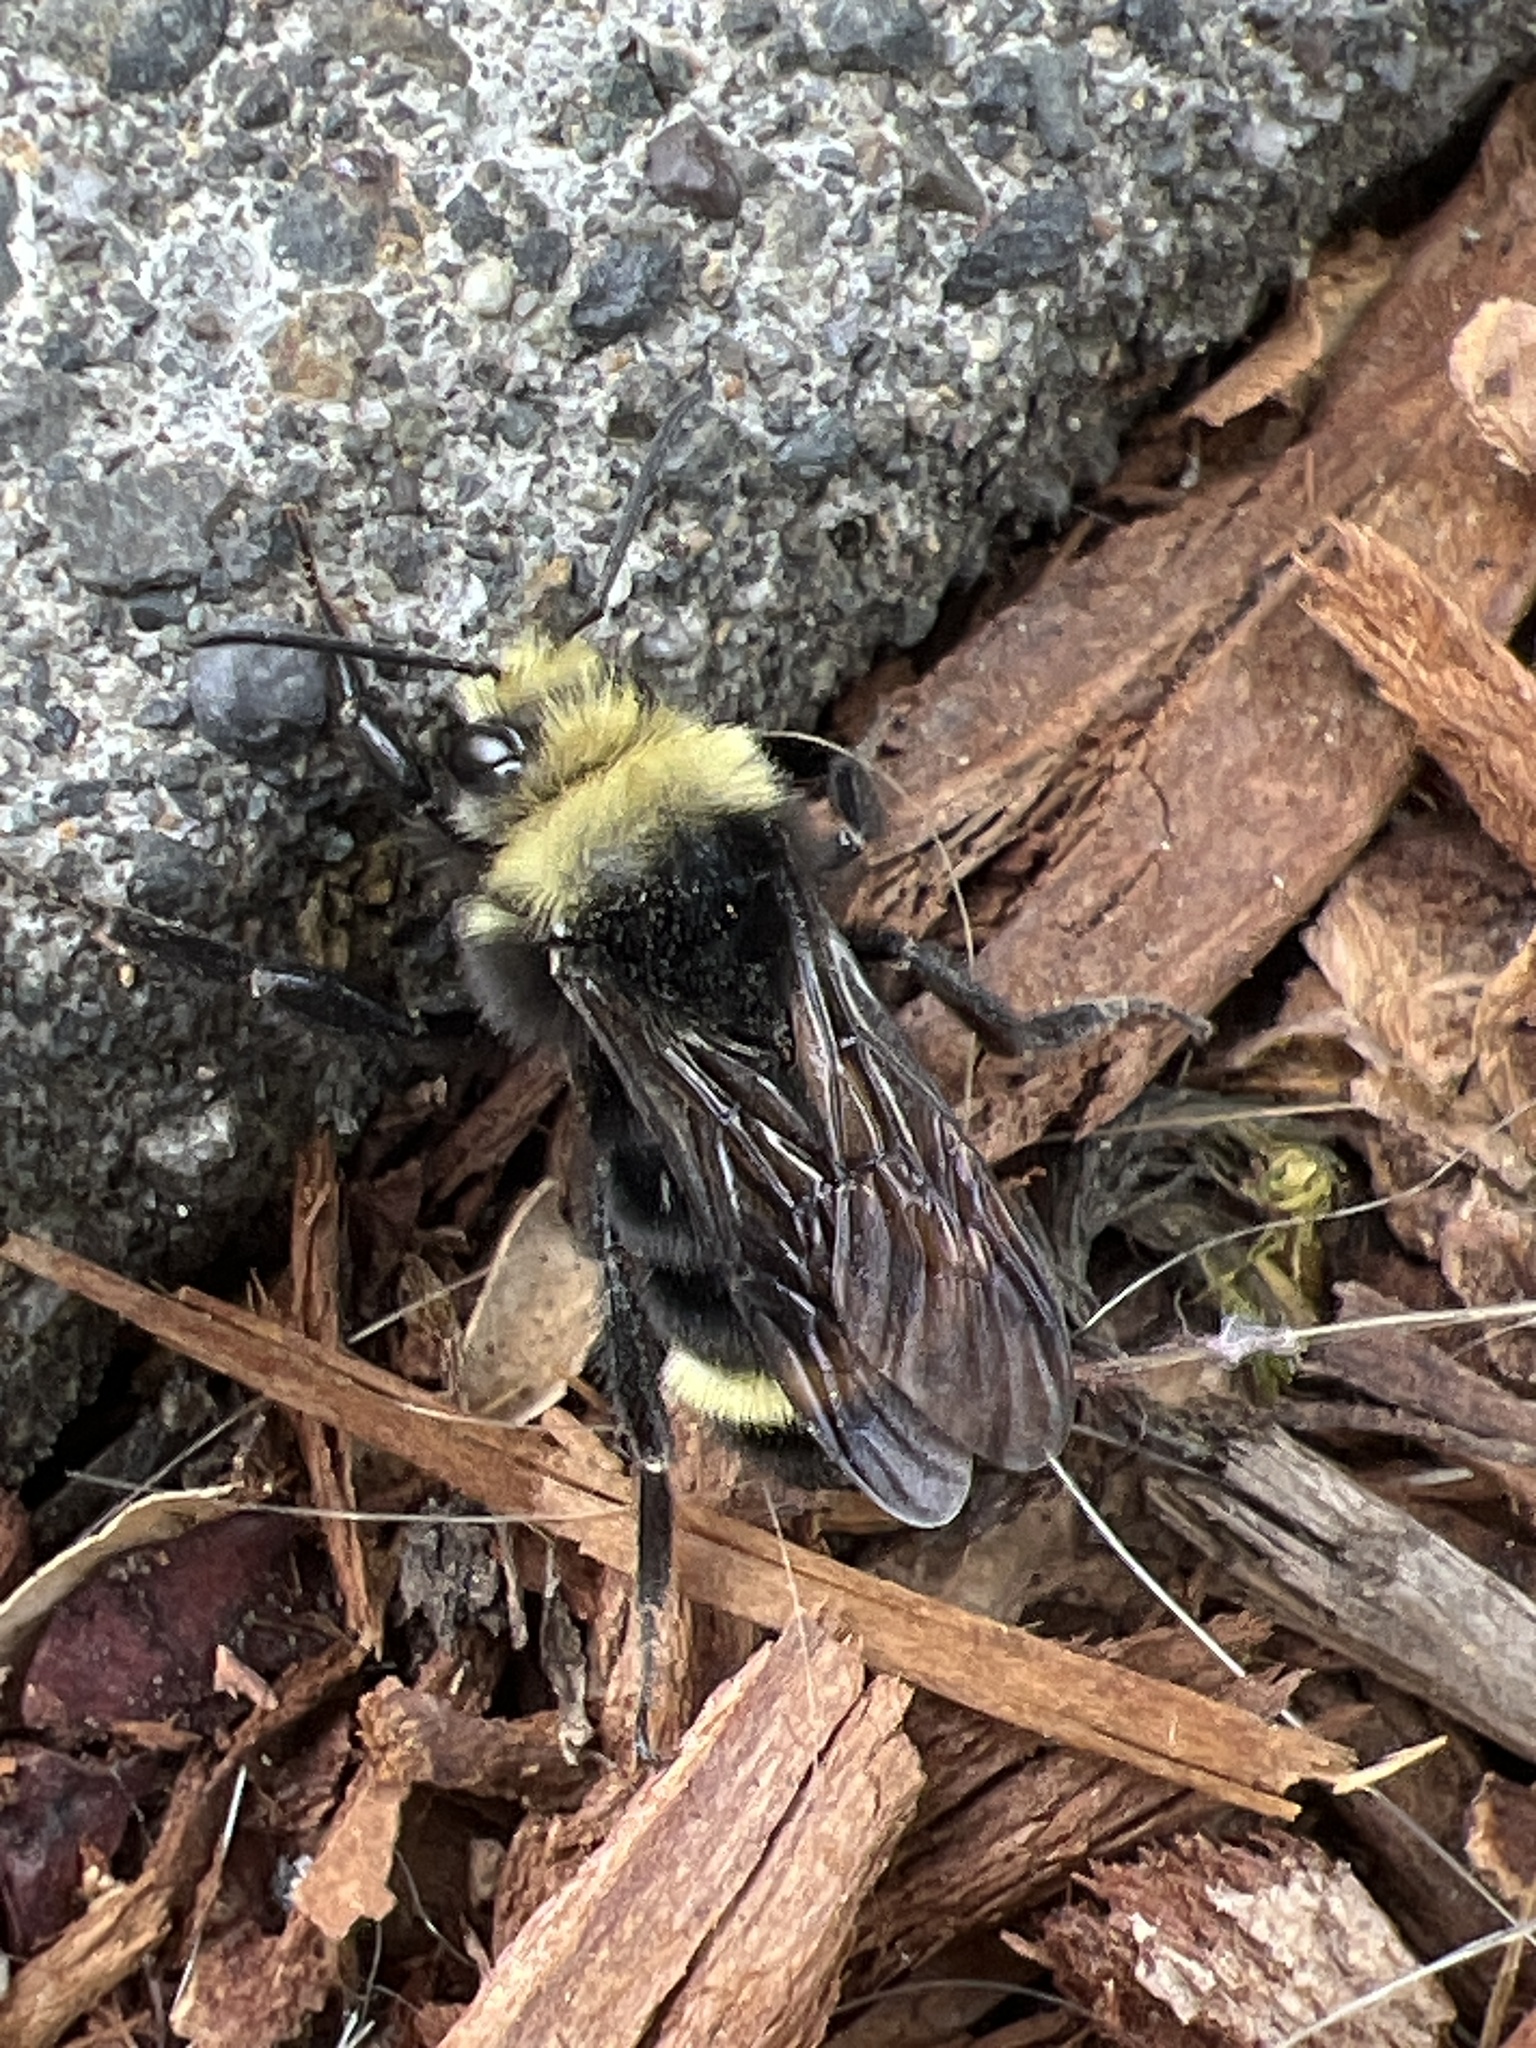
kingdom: Animalia
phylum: Arthropoda
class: Insecta
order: Hymenoptera
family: Apidae
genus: Bombus
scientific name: Bombus vosnesenskii
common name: Vosnesensky bumble bee
